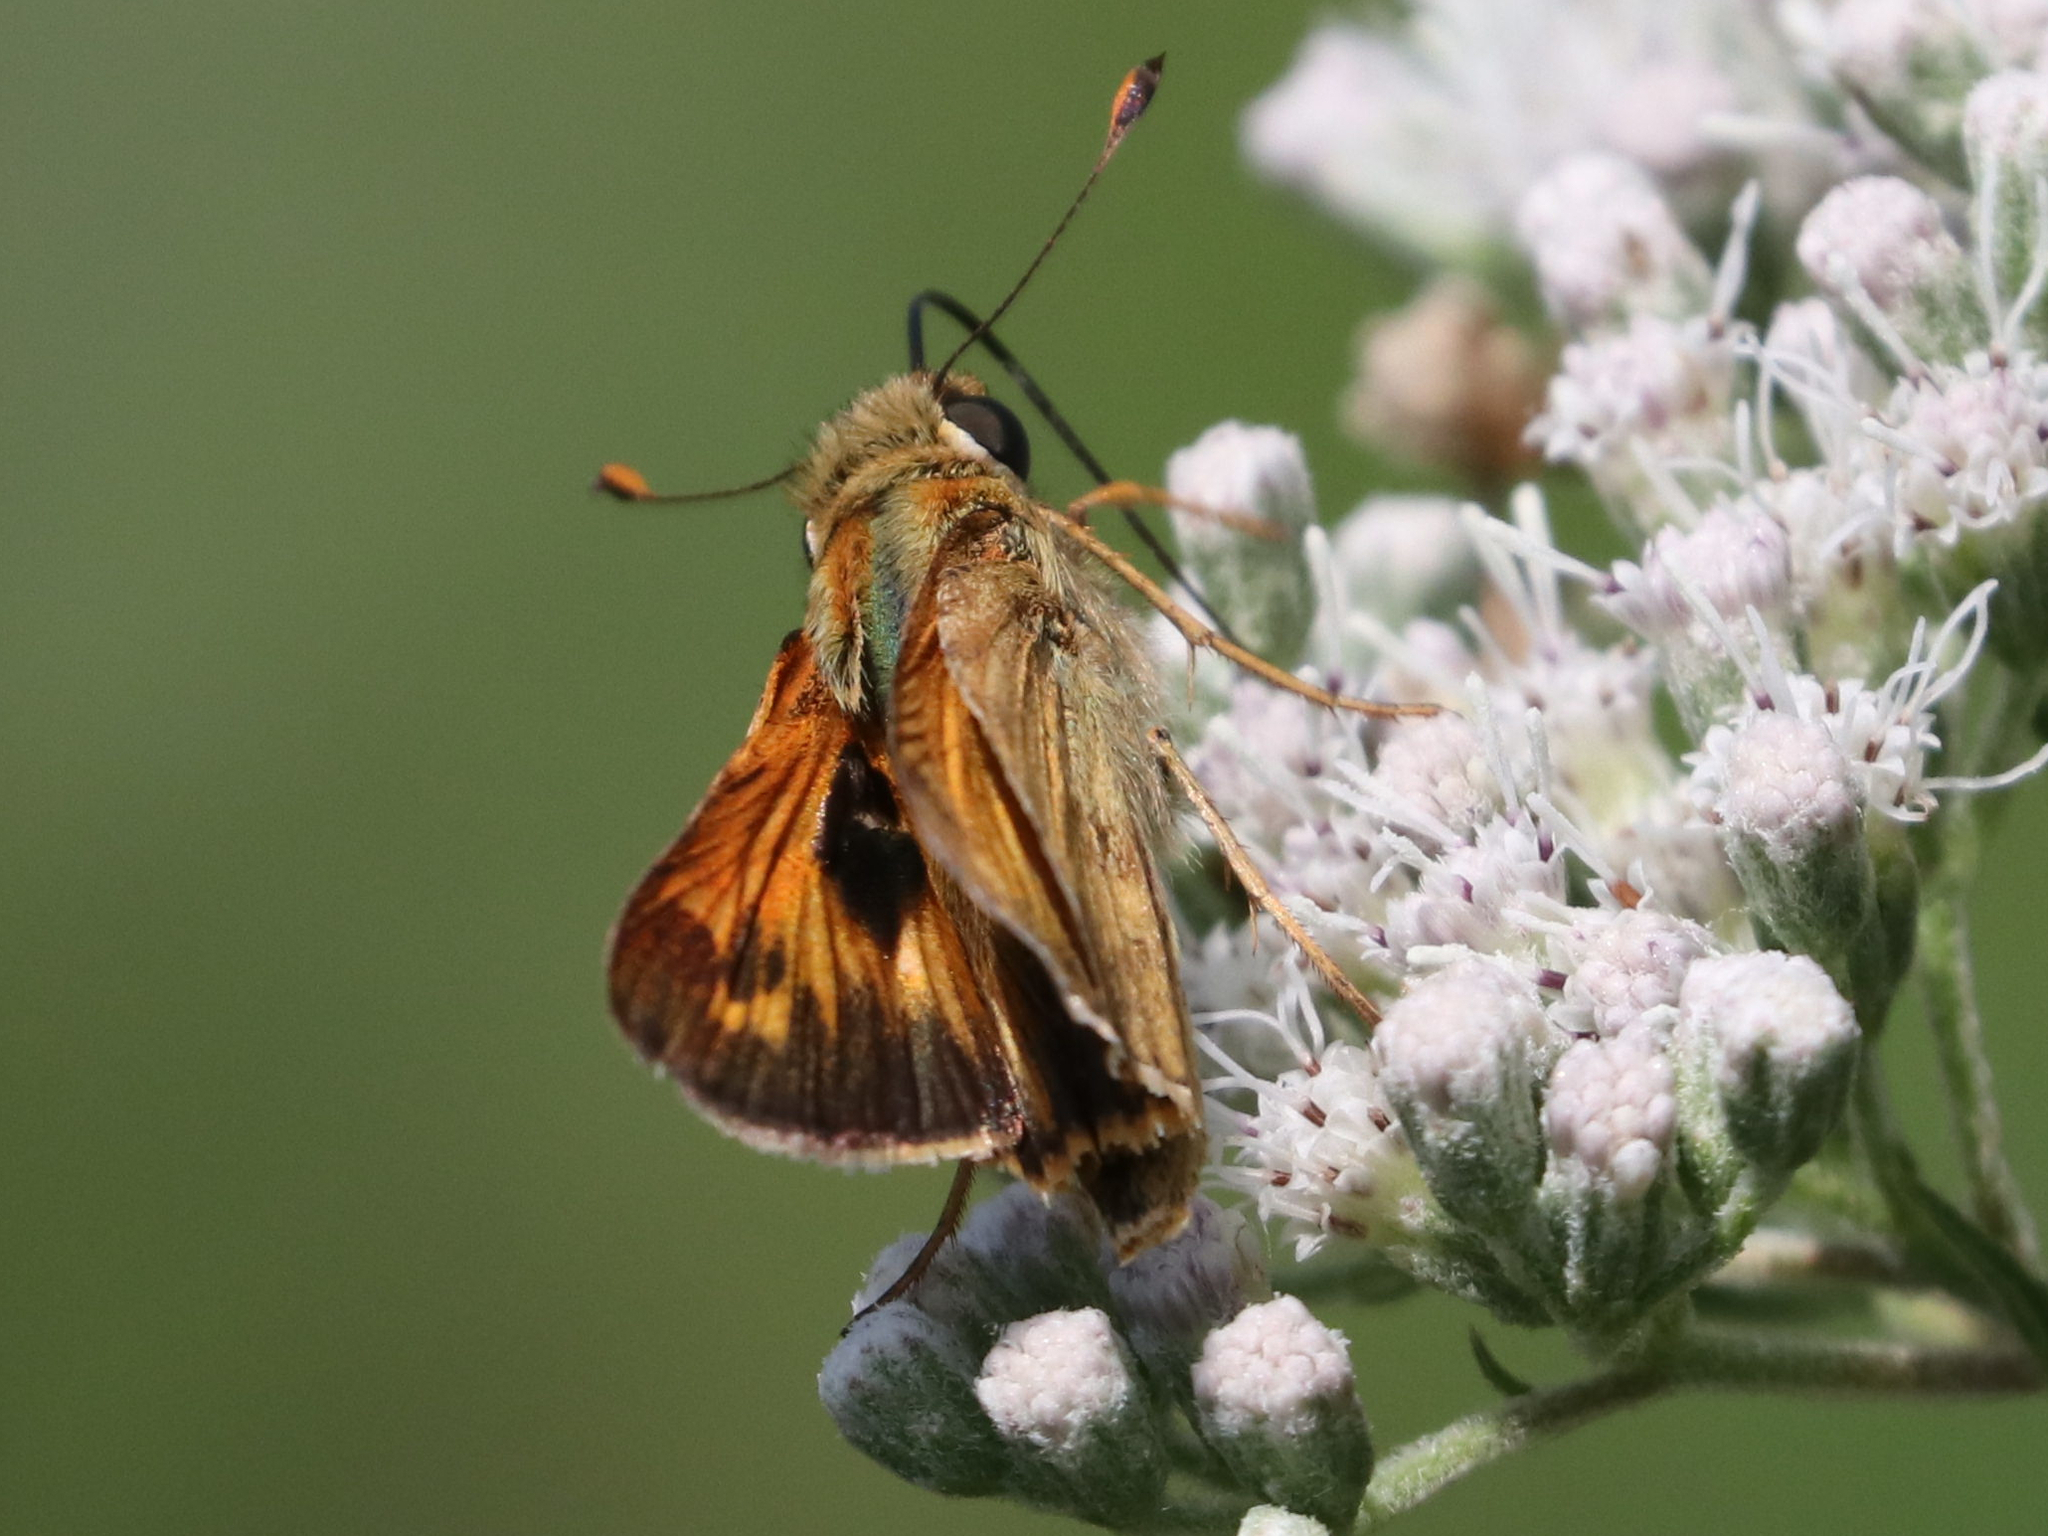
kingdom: Animalia
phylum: Arthropoda
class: Insecta
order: Lepidoptera
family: Hesperiidae
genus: Atalopedes
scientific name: Atalopedes
